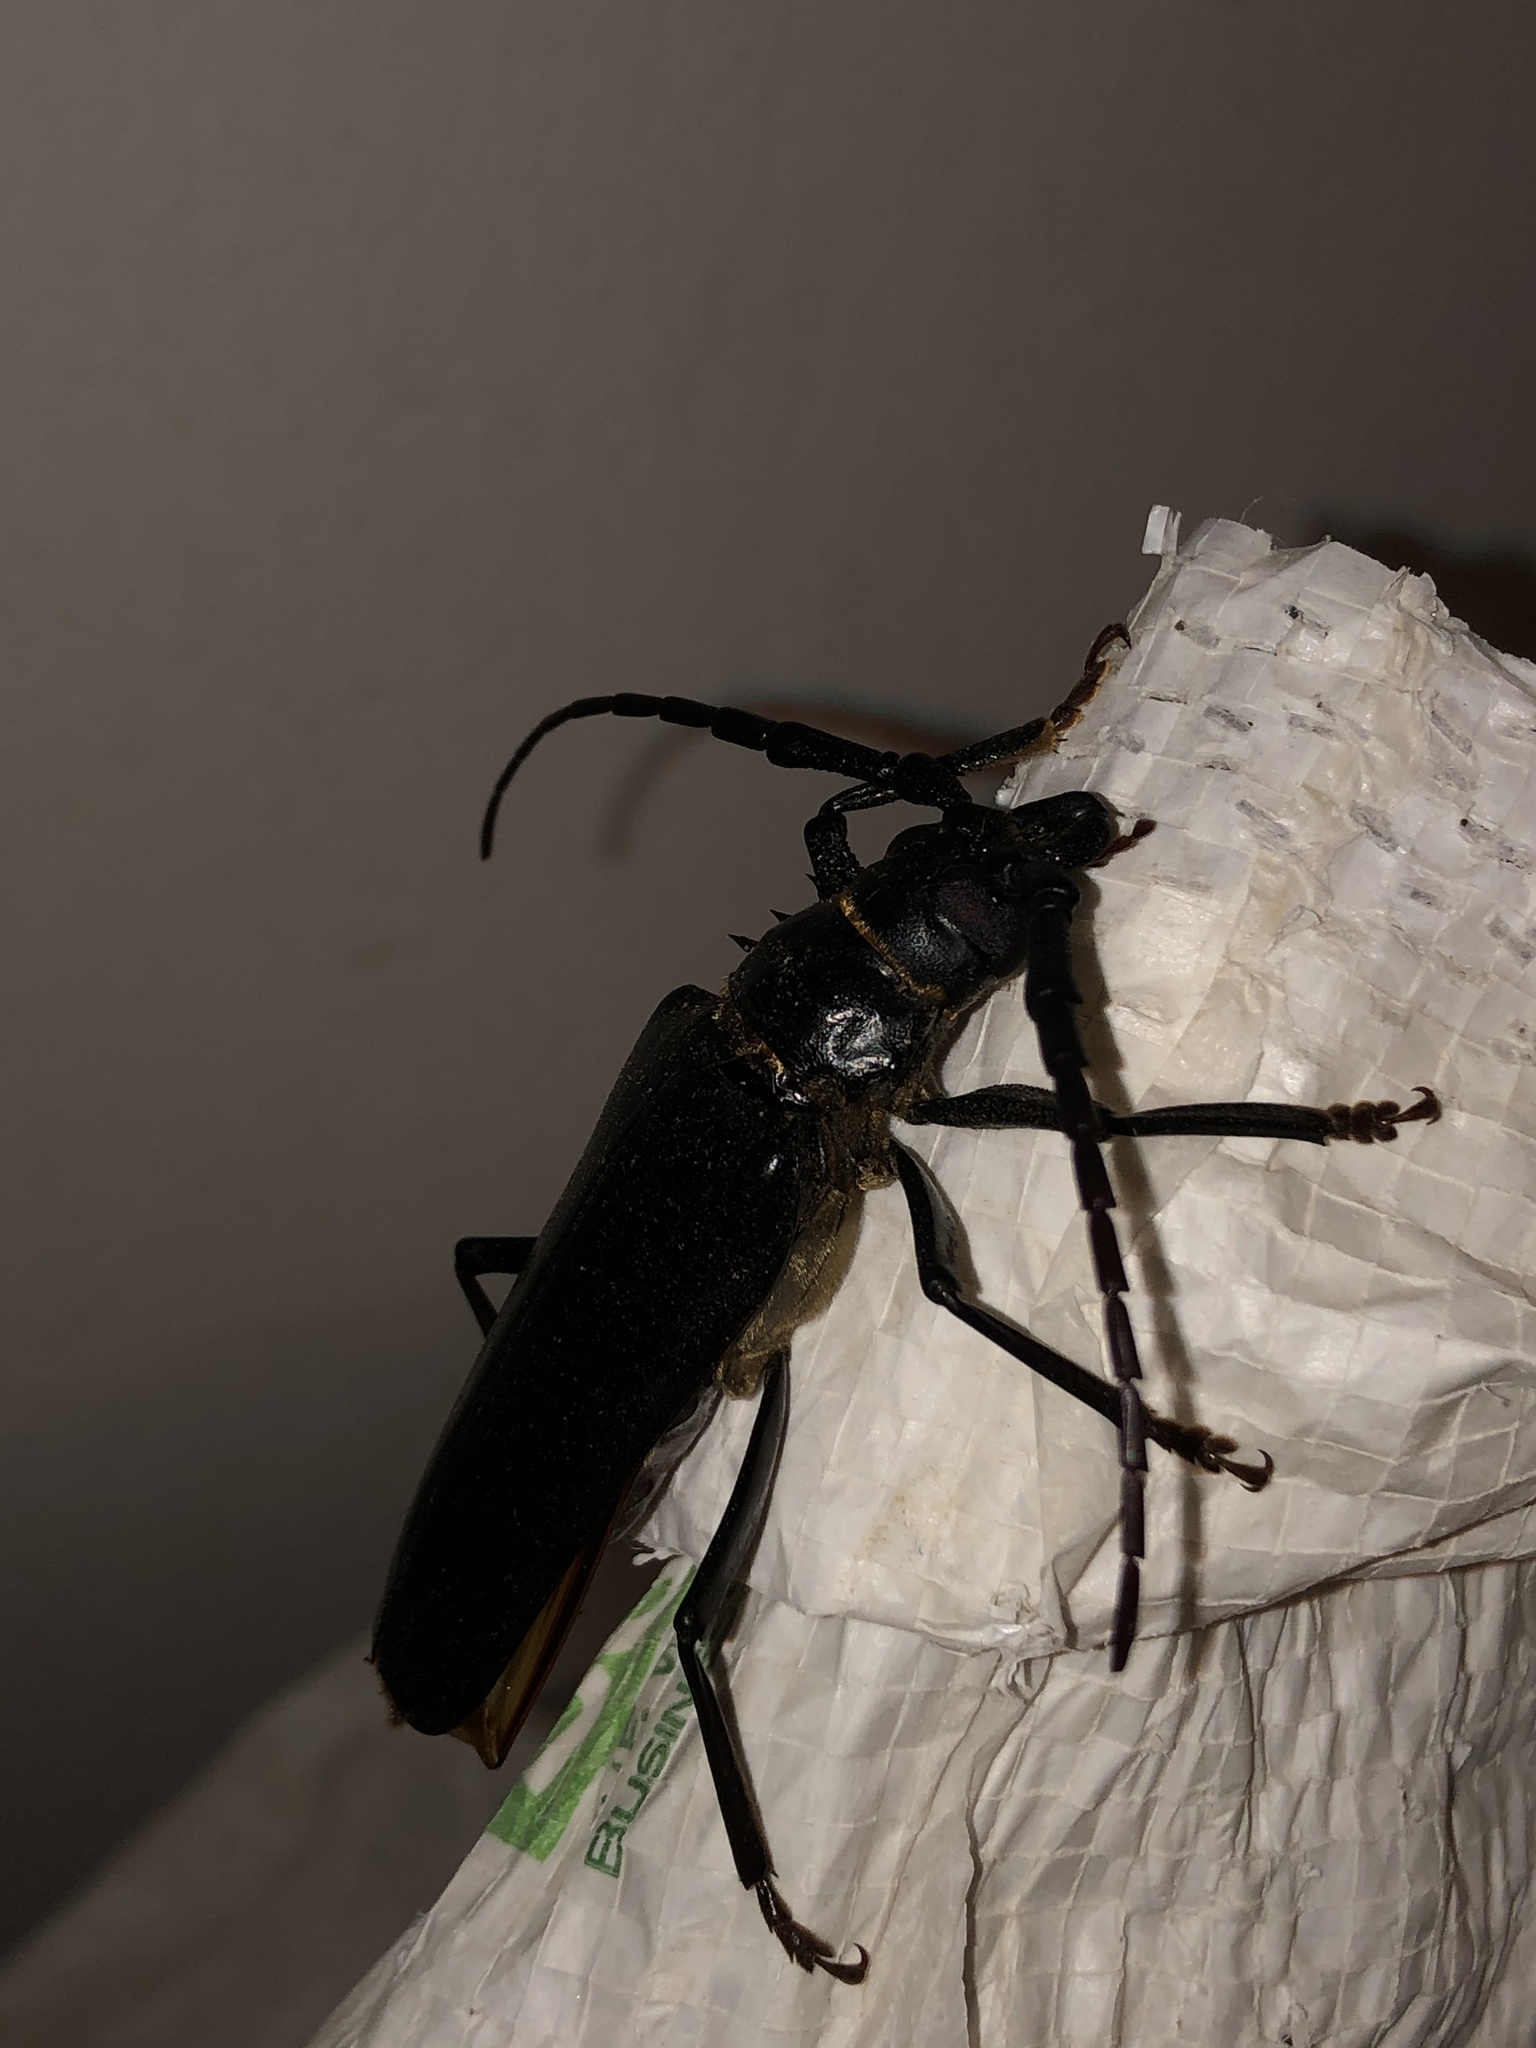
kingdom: Animalia
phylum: Arthropoda
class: Insecta
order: Coleoptera
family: Cerambycidae
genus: Derobrachus
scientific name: Derobrachus hovorei
